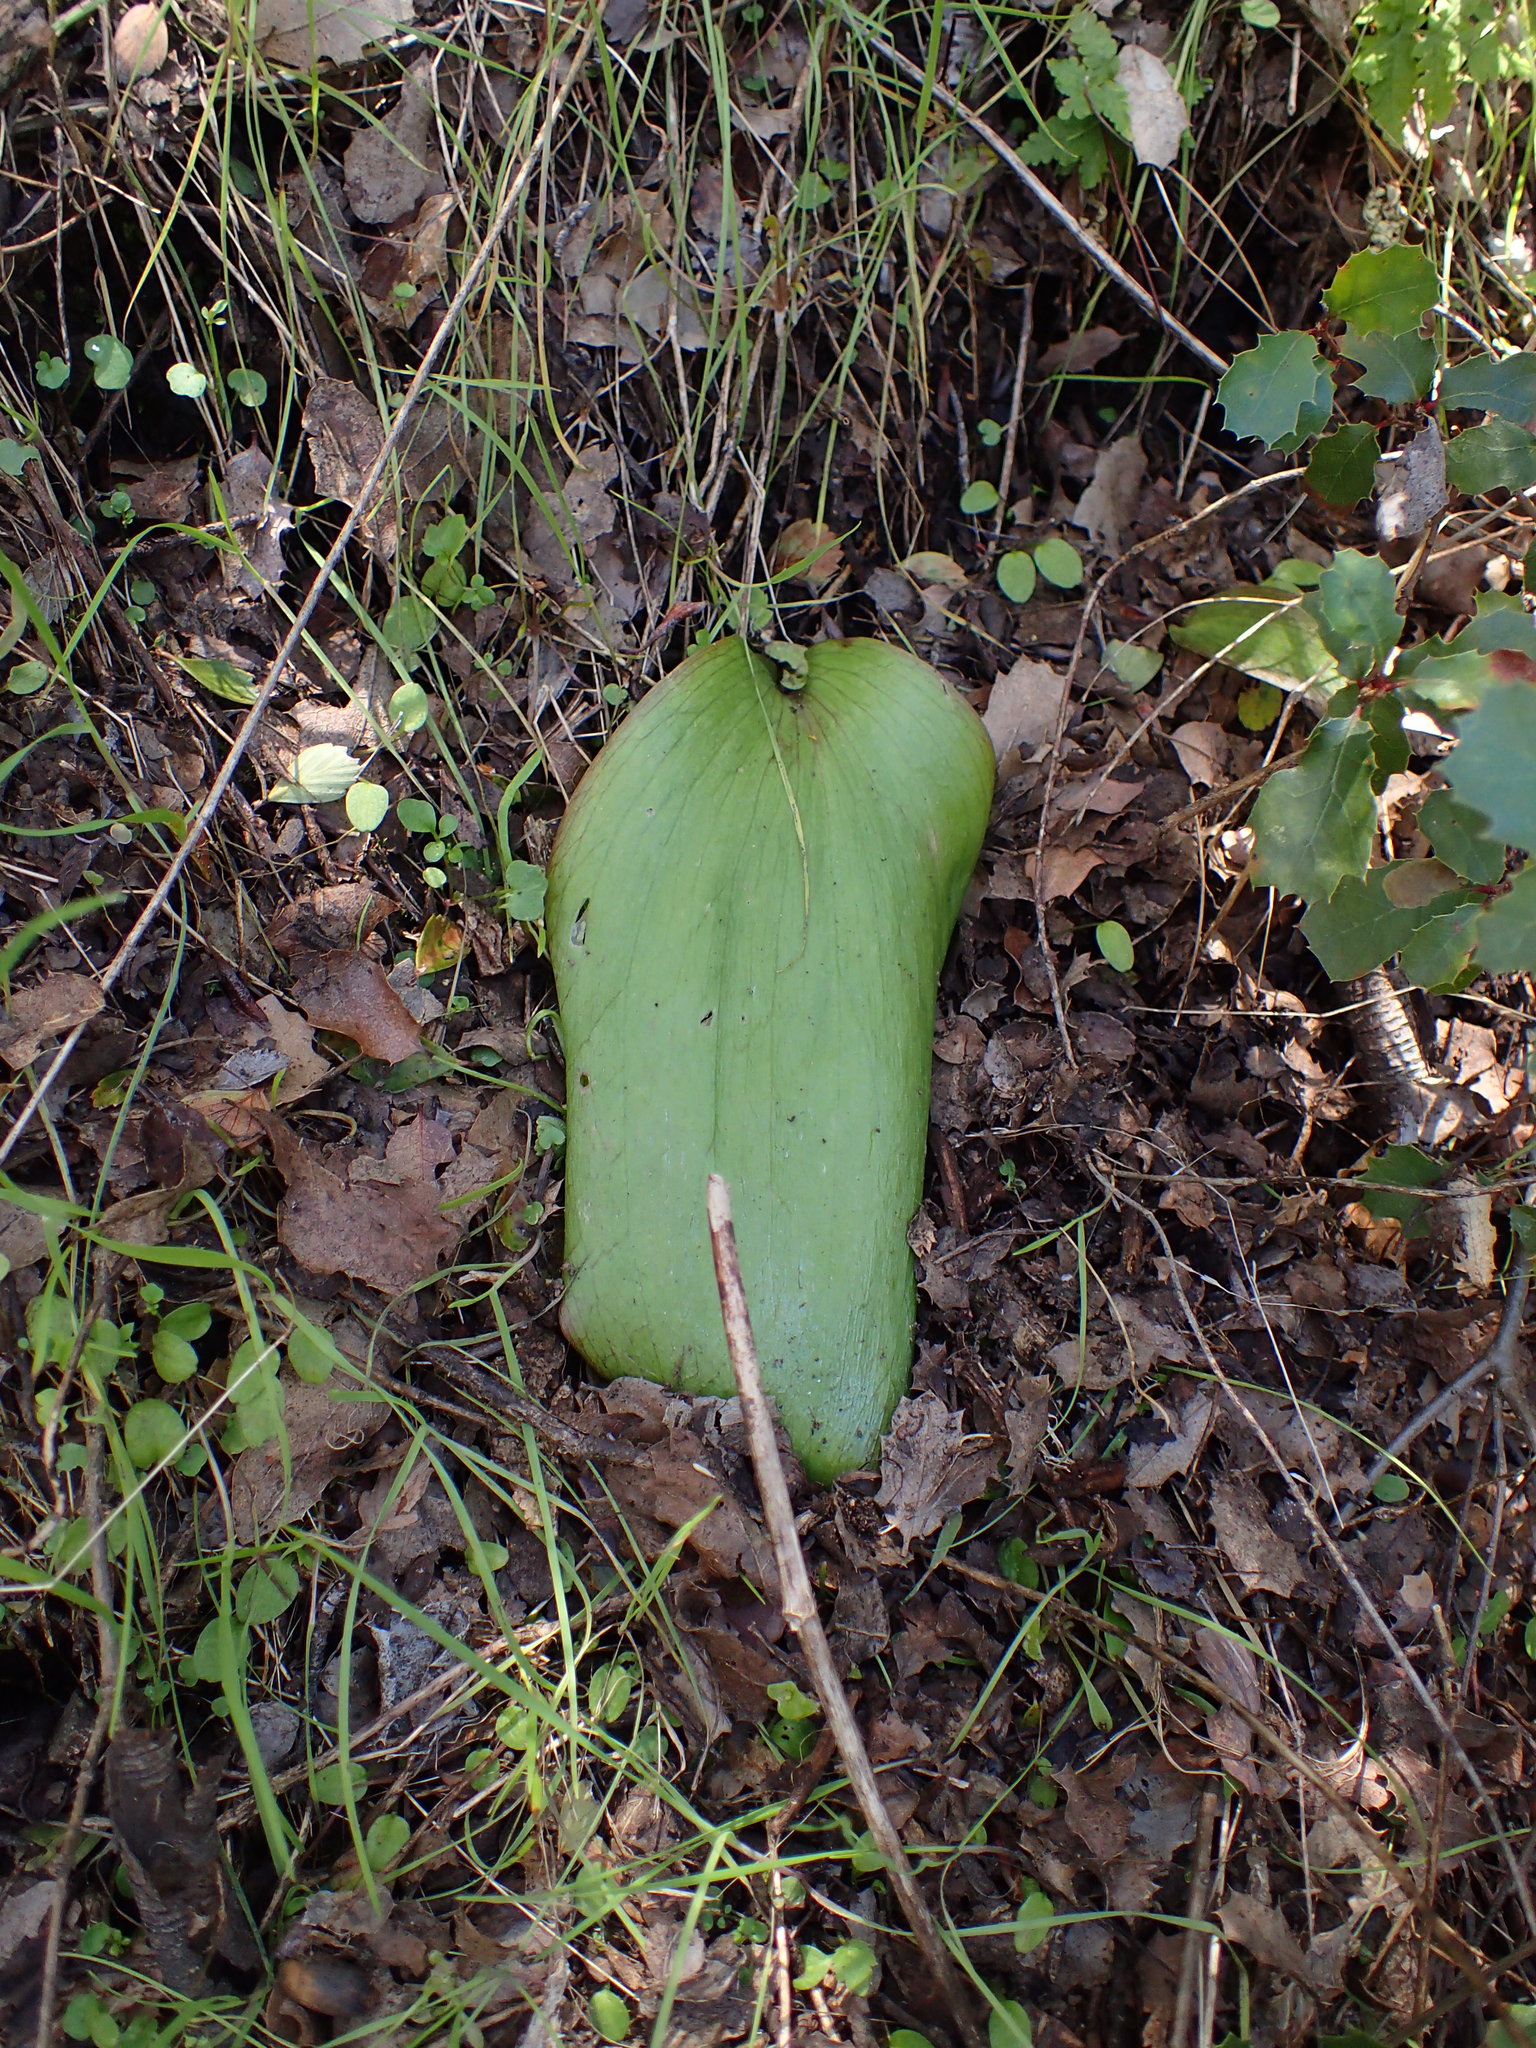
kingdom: Plantae
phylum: Tracheophyta
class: Liliopsida
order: Liliales
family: Liliaceae
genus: Fritillaria
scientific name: Fritillaria ojaiensis
